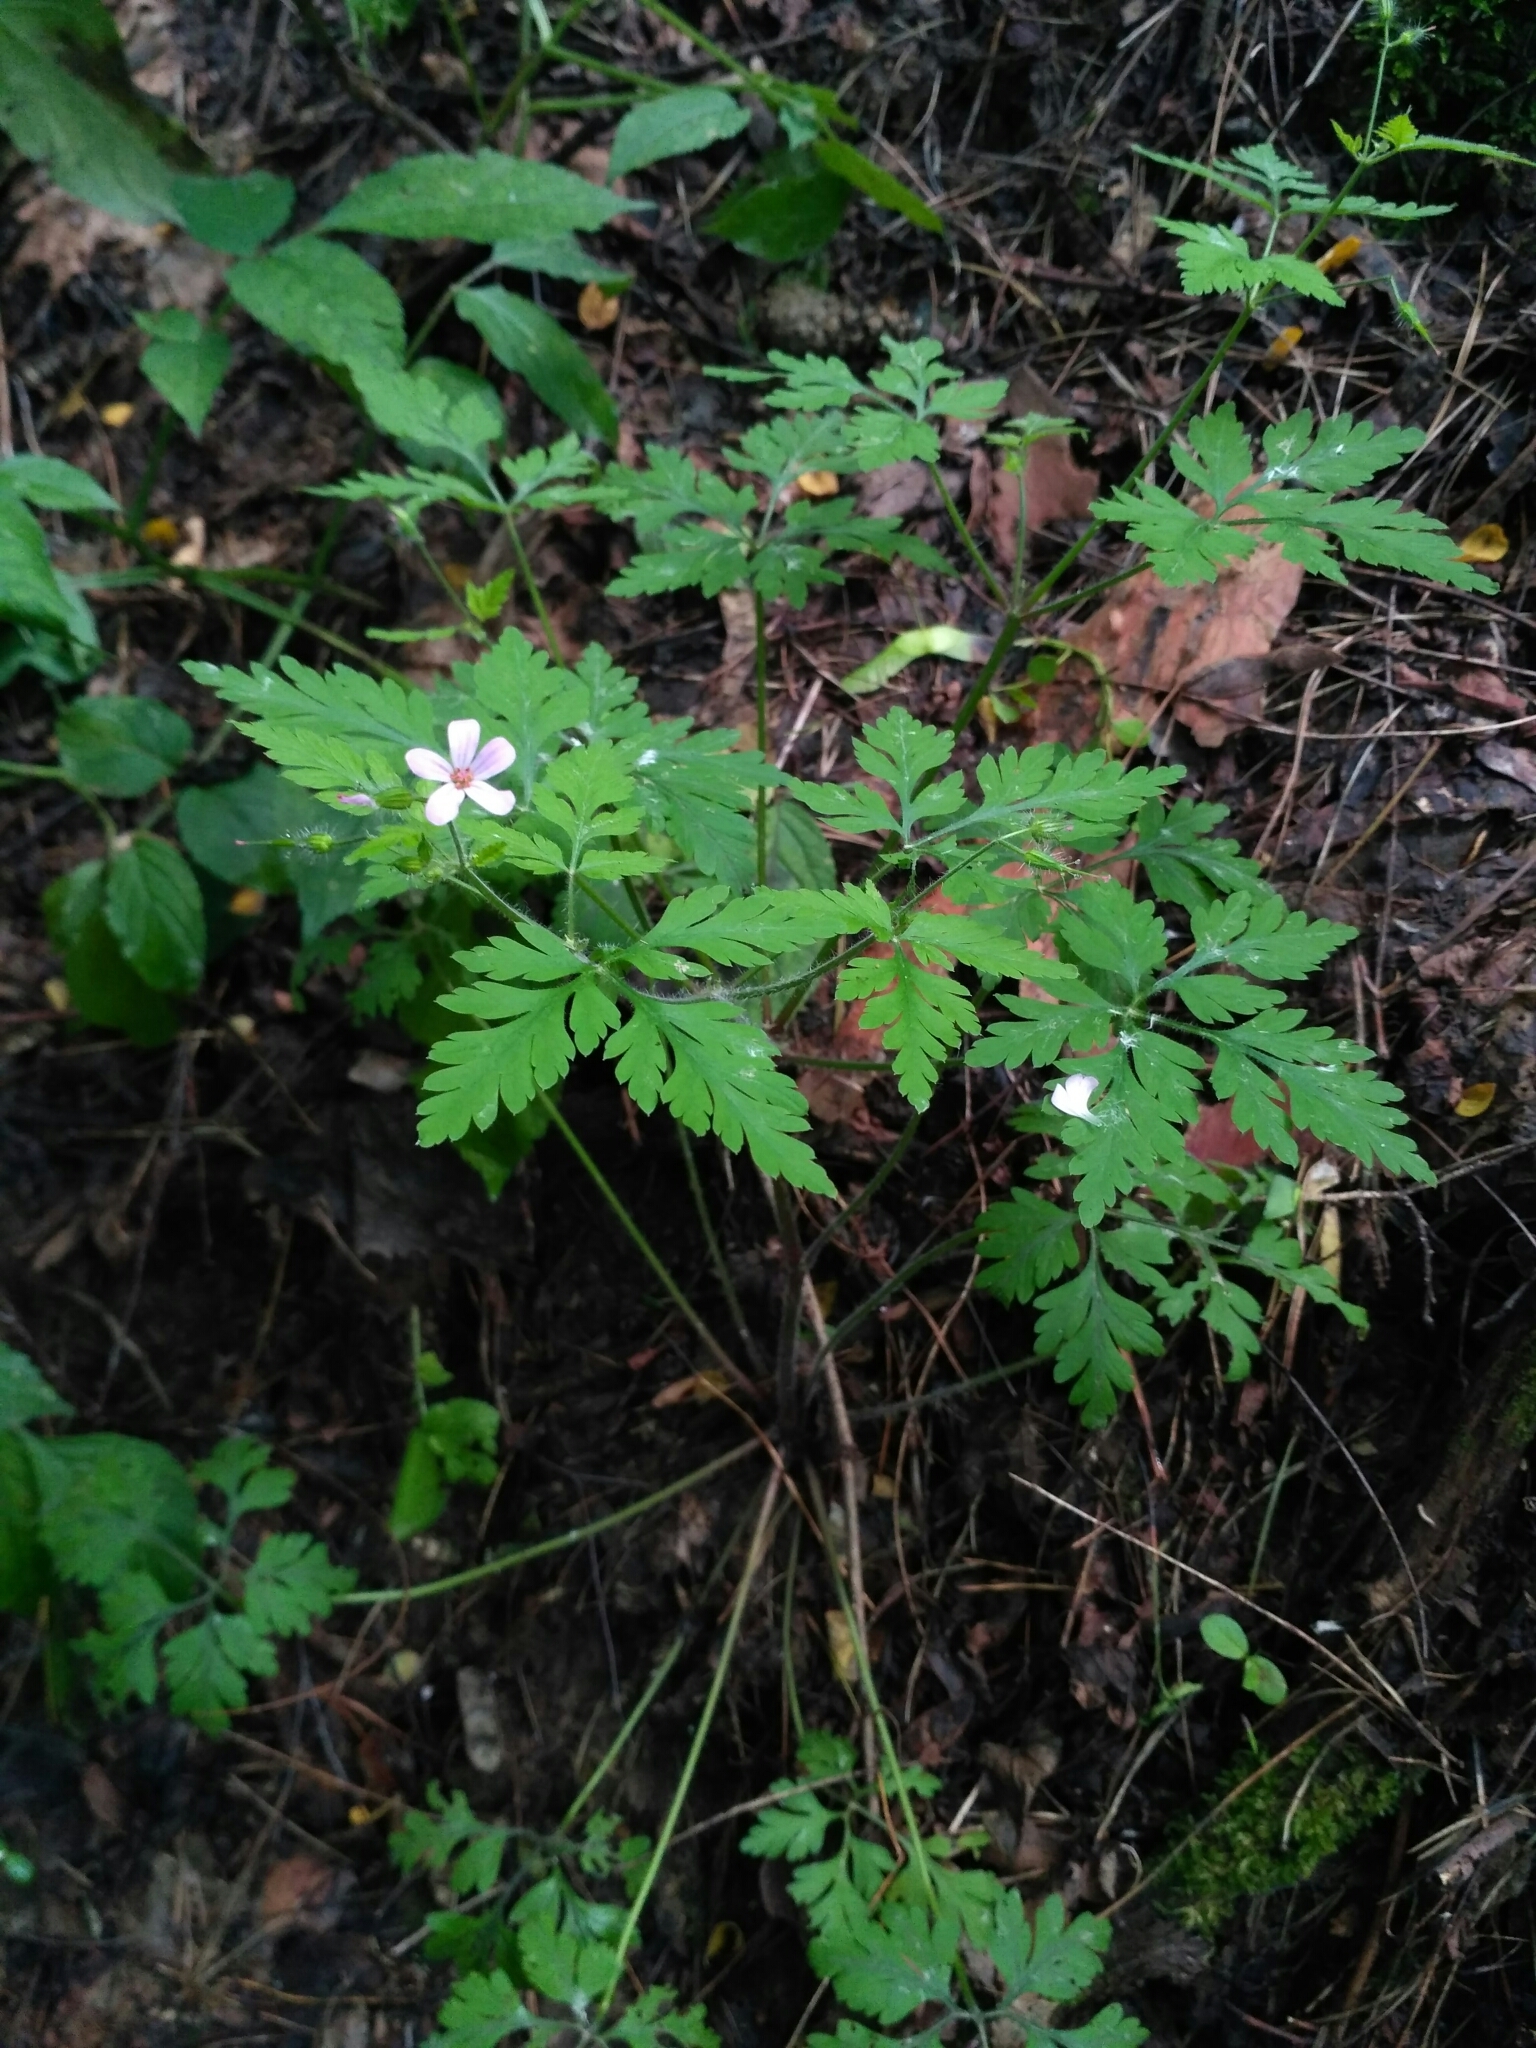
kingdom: Plantae
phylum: Tracheophyta
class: Magnoliopsida
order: Geraniales
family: Geraniaceae
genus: Geranium
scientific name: Geranium robertianum
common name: Herb-robert
